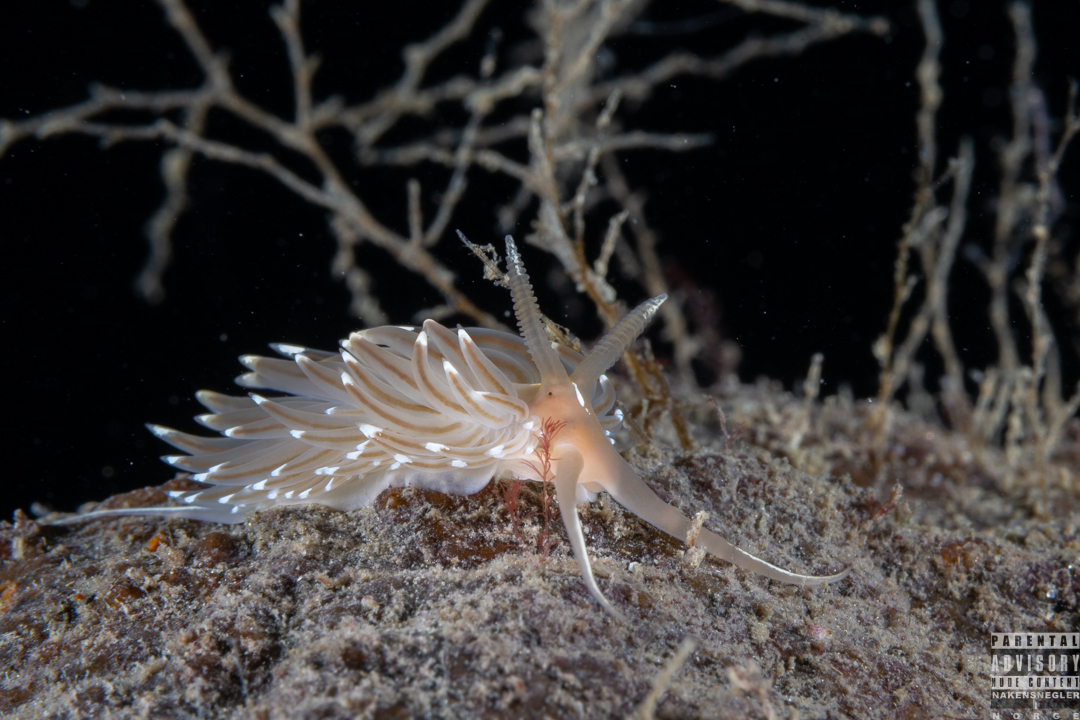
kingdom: Animalia
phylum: Mollusca
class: Gastropoda
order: Nudibranchia
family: Facelinidae
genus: Facelina
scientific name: Facelina bostoniensis
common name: Boston facelina
